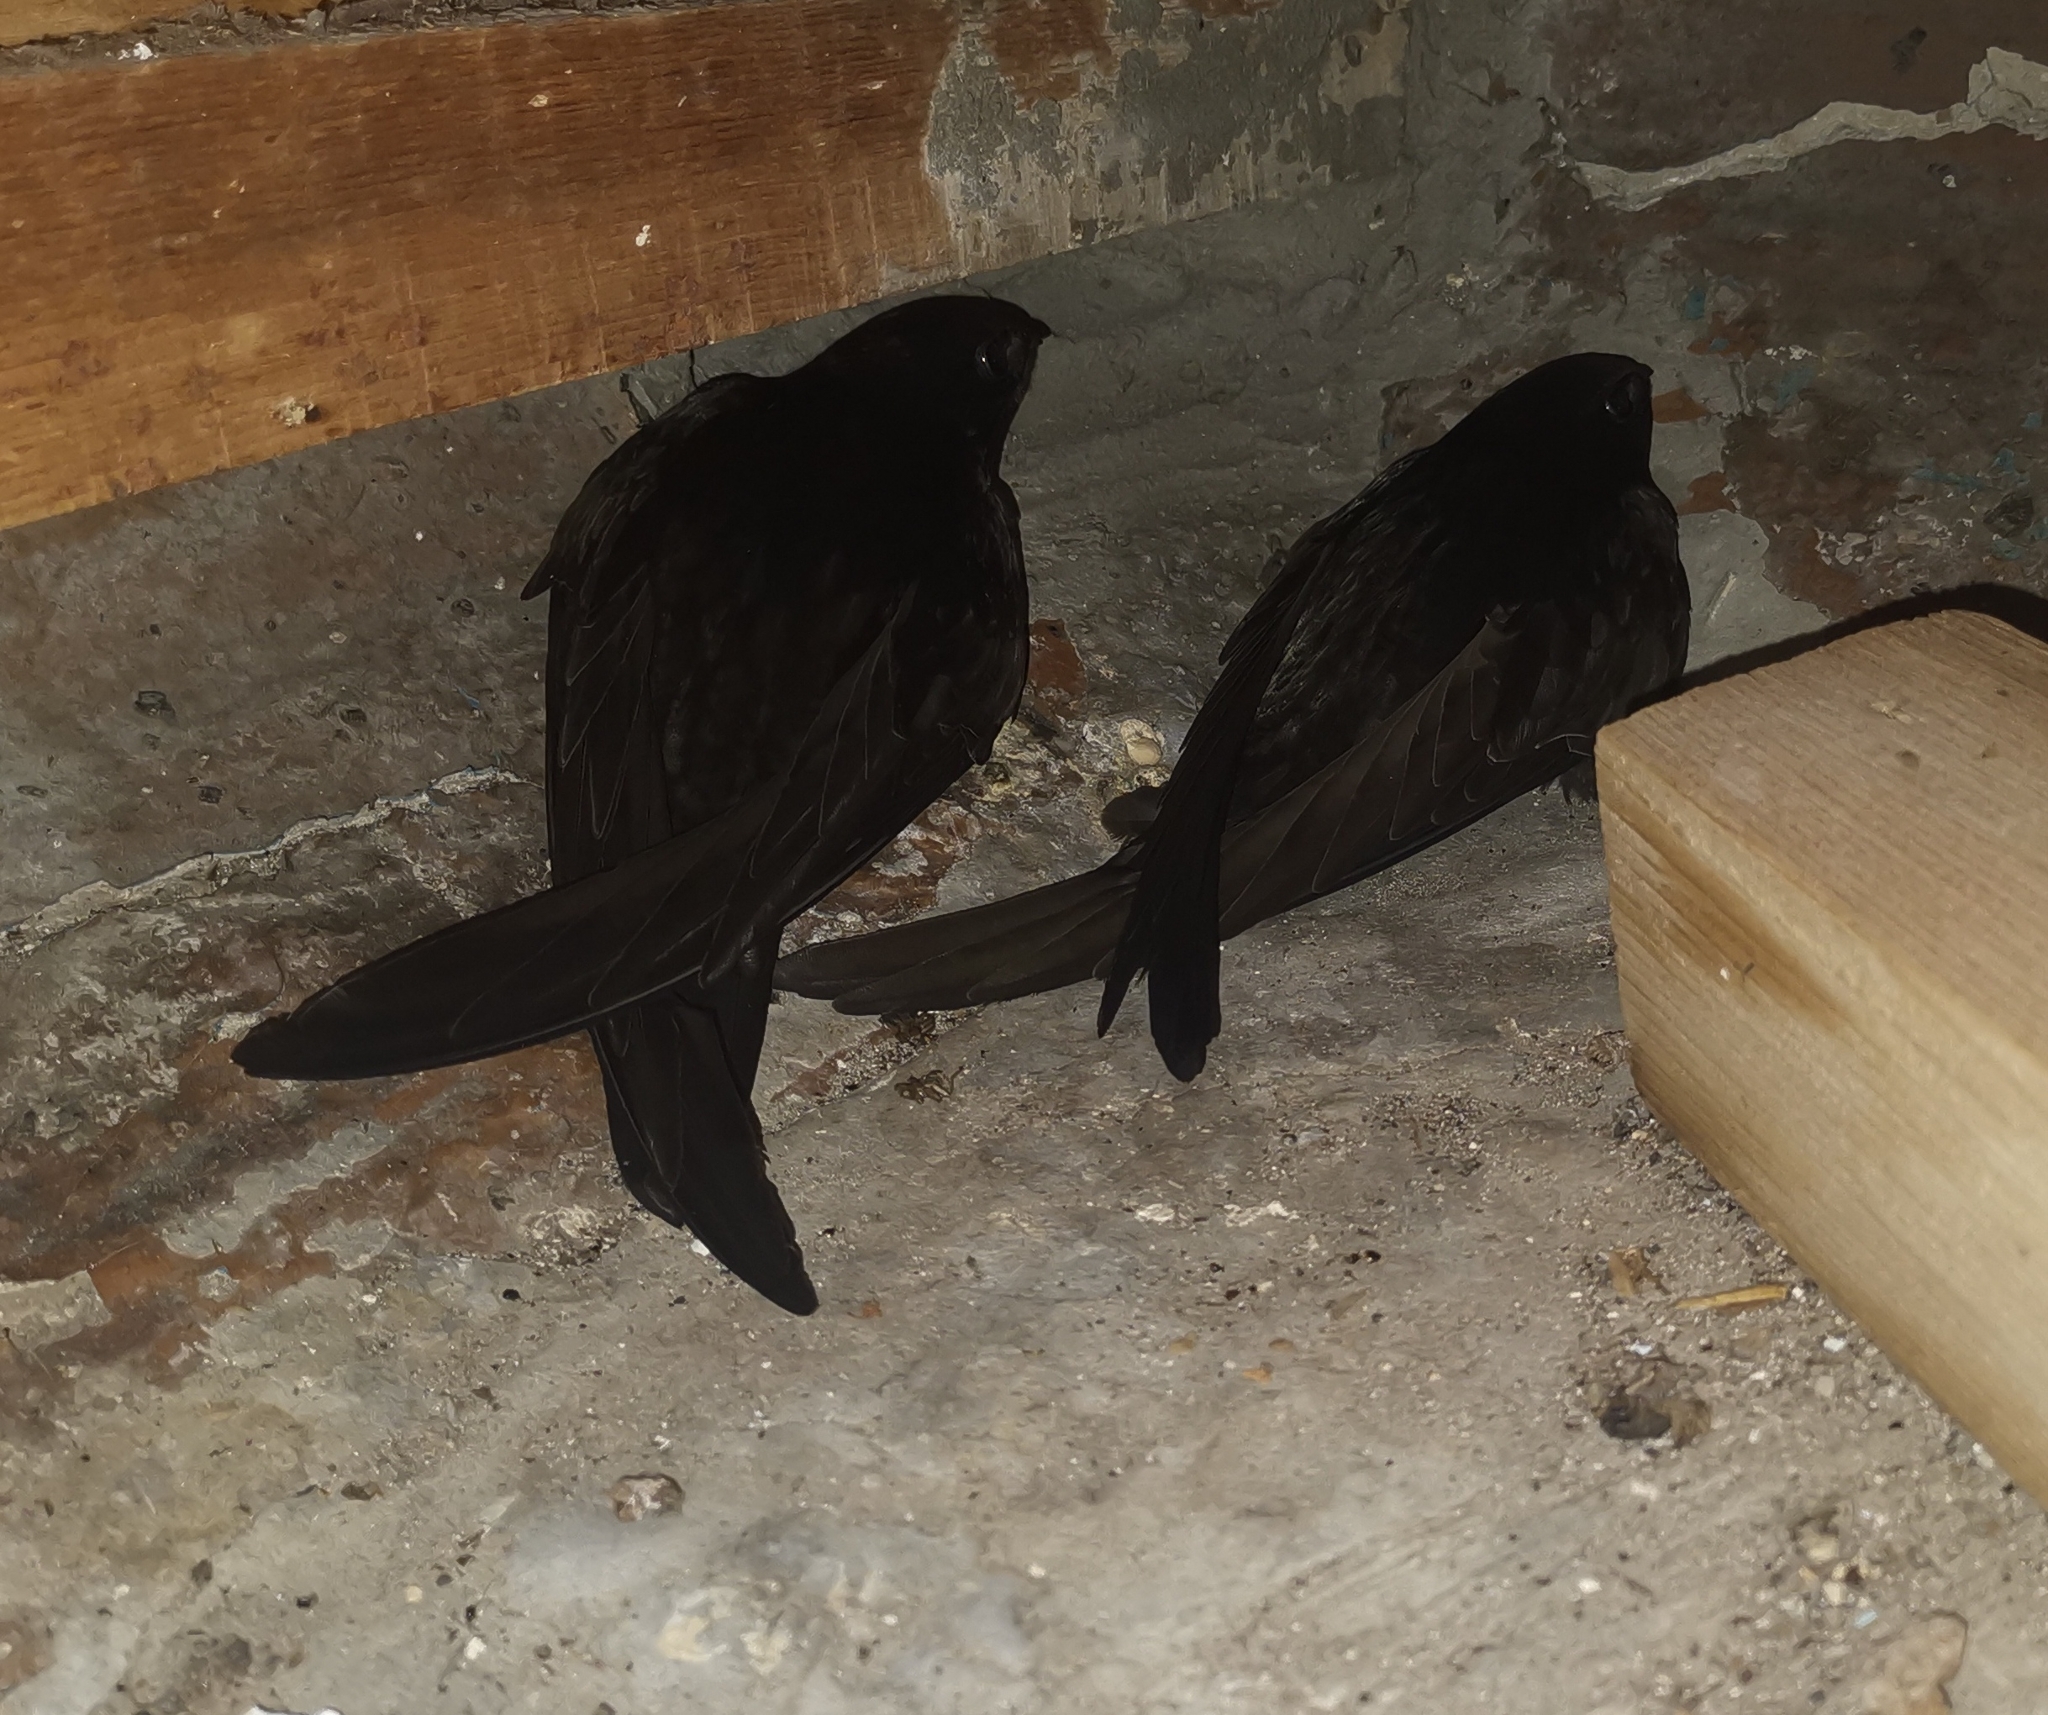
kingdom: Animalia
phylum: Chordata
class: Aves
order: Apodiformes
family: Apodidae
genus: Apus
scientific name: Apus apus
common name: Common swift
